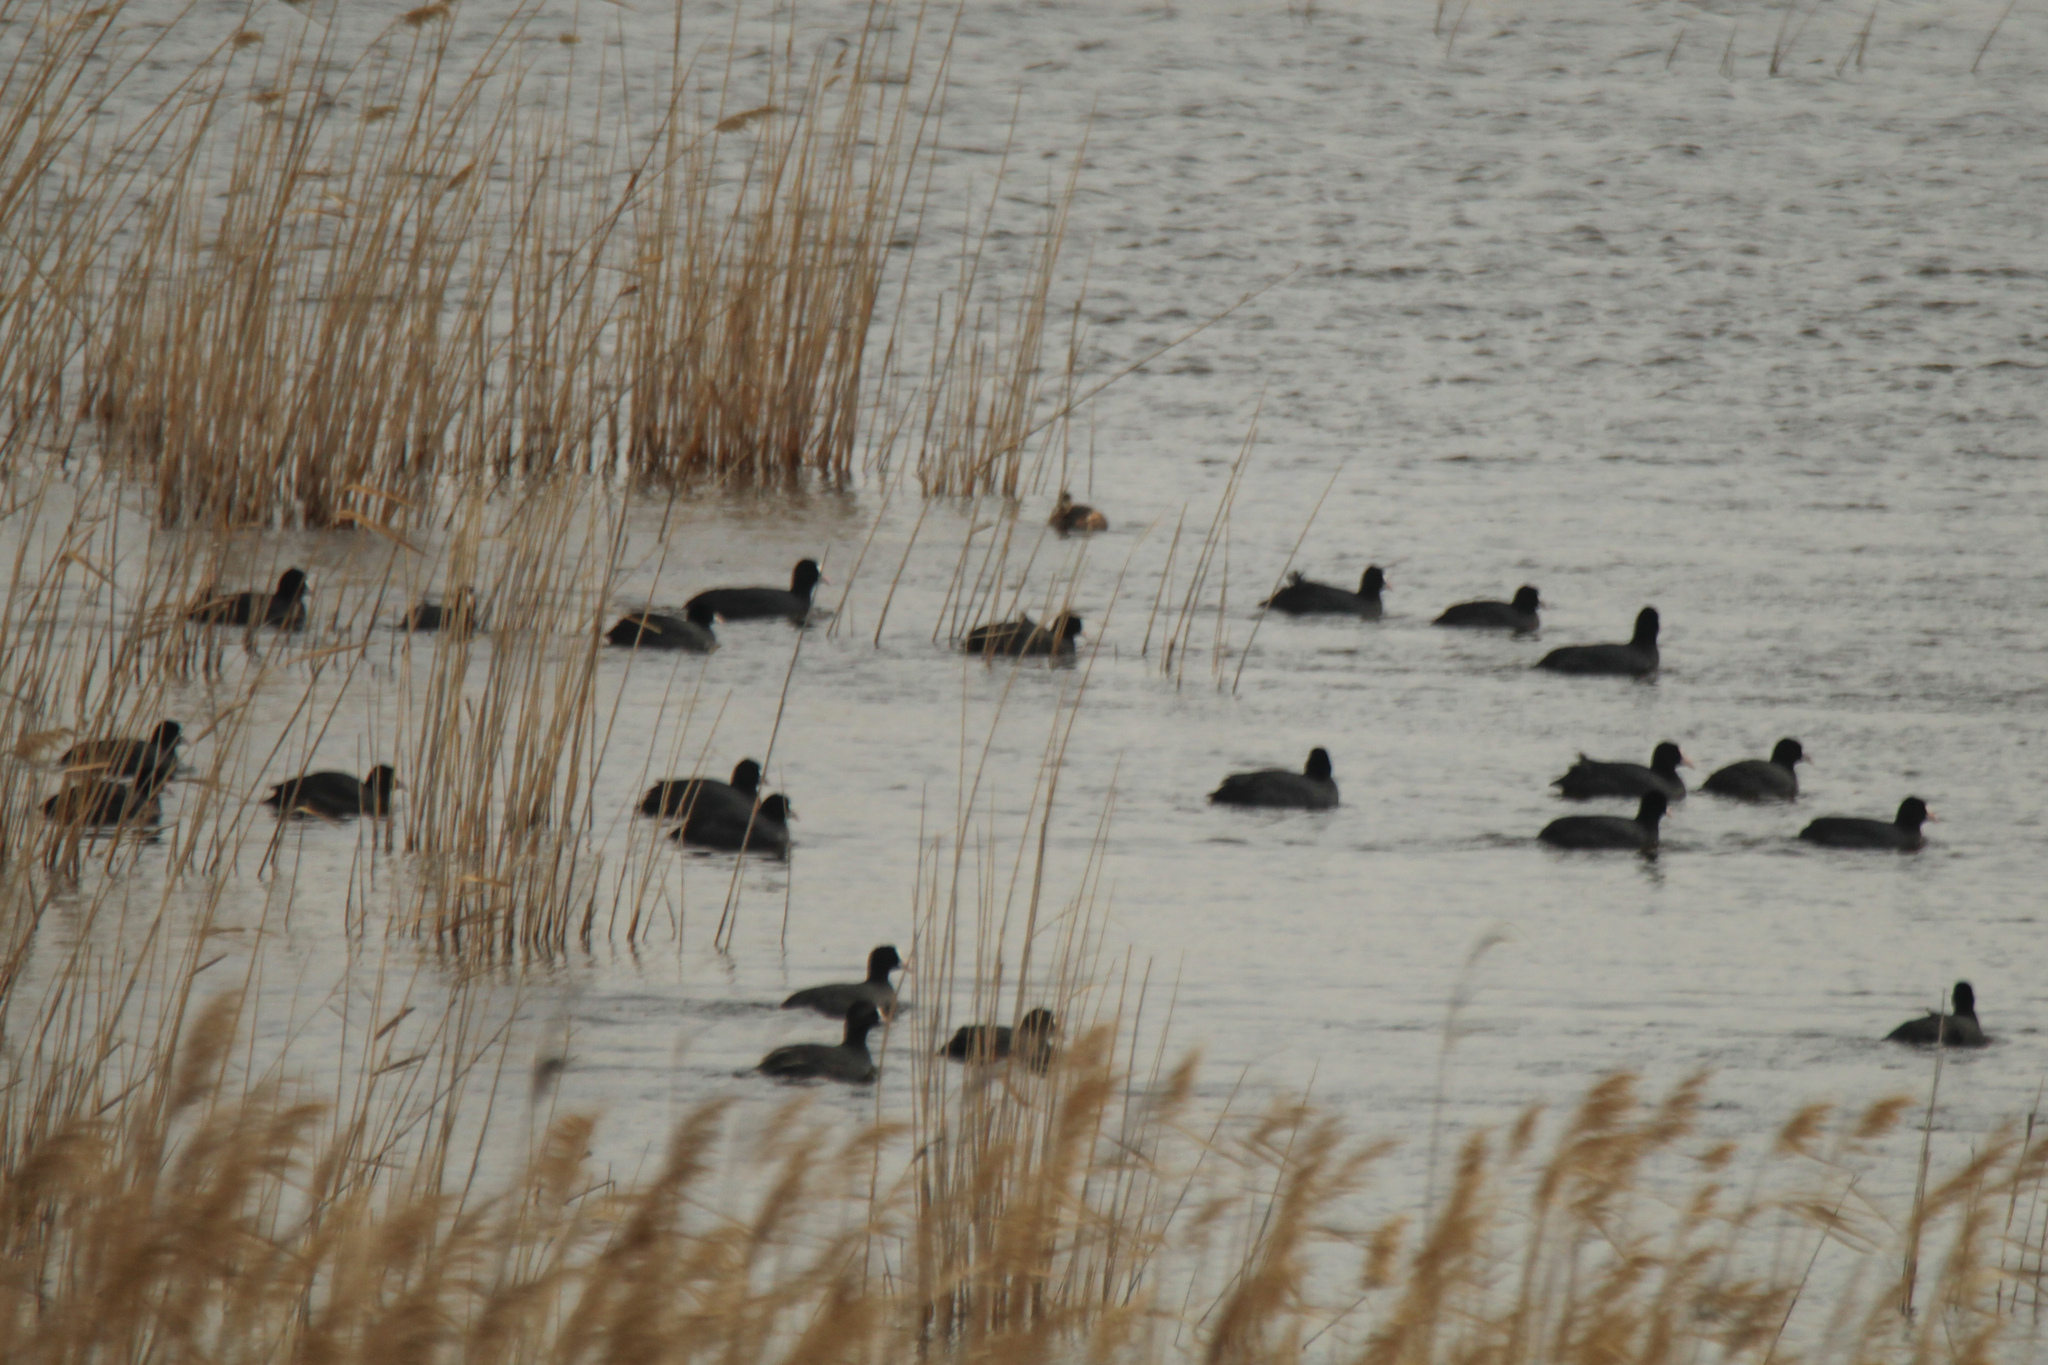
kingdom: Animalia
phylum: Chordata
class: Aves
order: Gruiformes
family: Rallidae
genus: Fulica
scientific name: Fulica atra
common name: Eurasian coot
